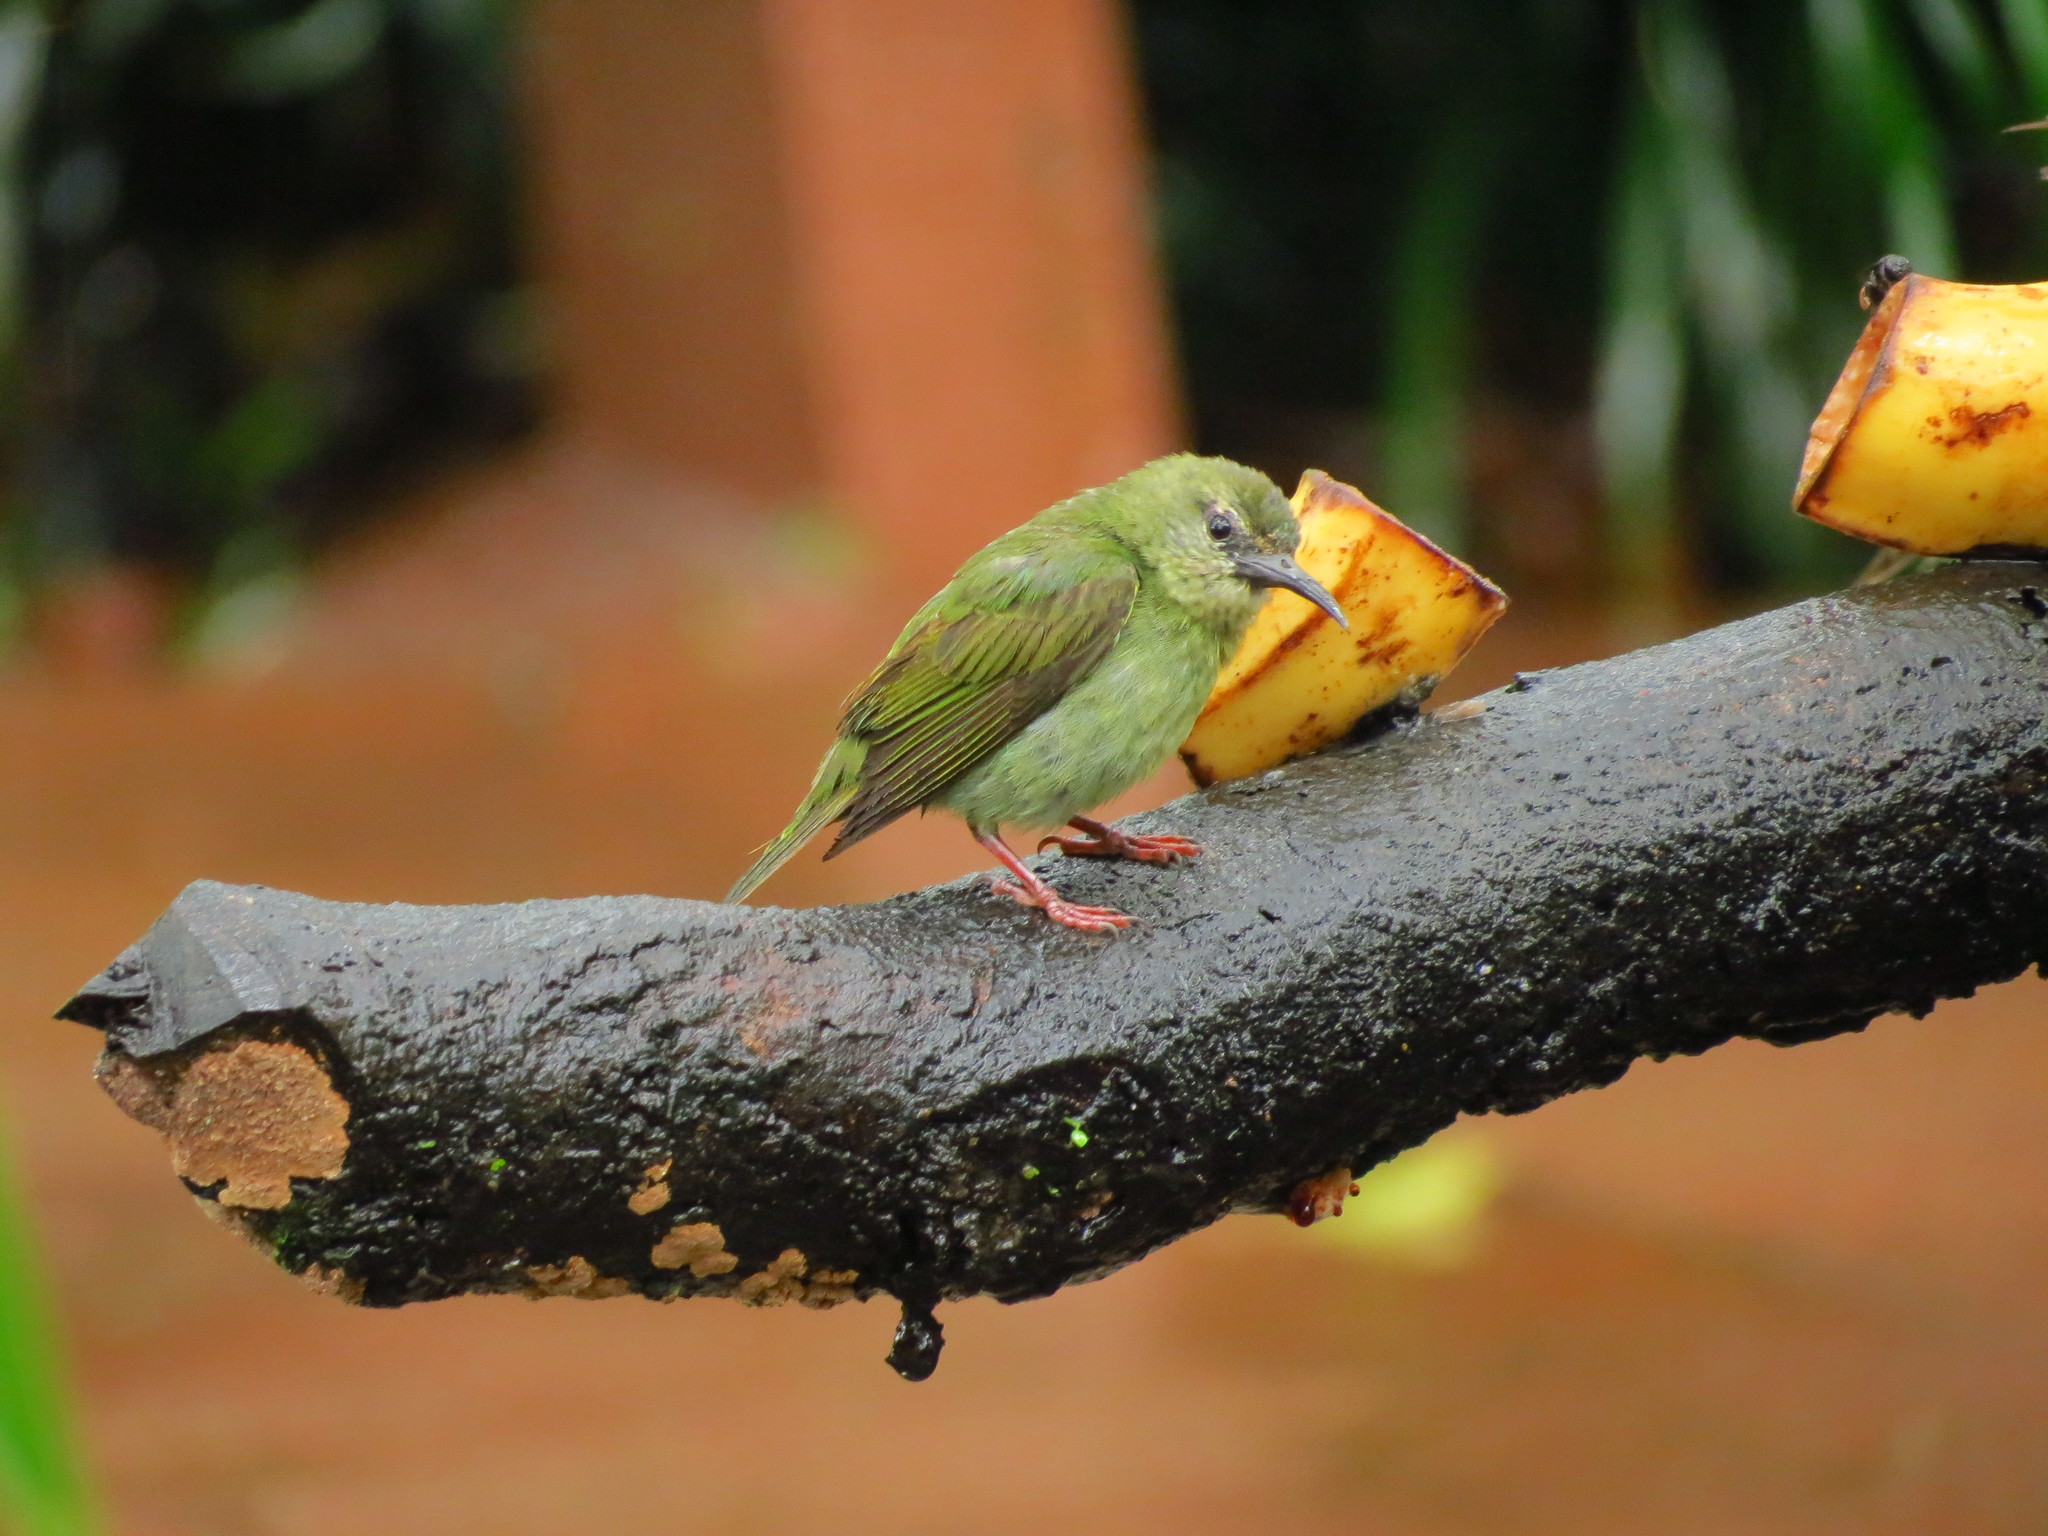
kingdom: Animalia
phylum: Chordata
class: Aves
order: Passeriformes
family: Thraupidae
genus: Cyanerpes
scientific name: Cyanerpes cyaneus
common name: Red-legged honeycreeper
